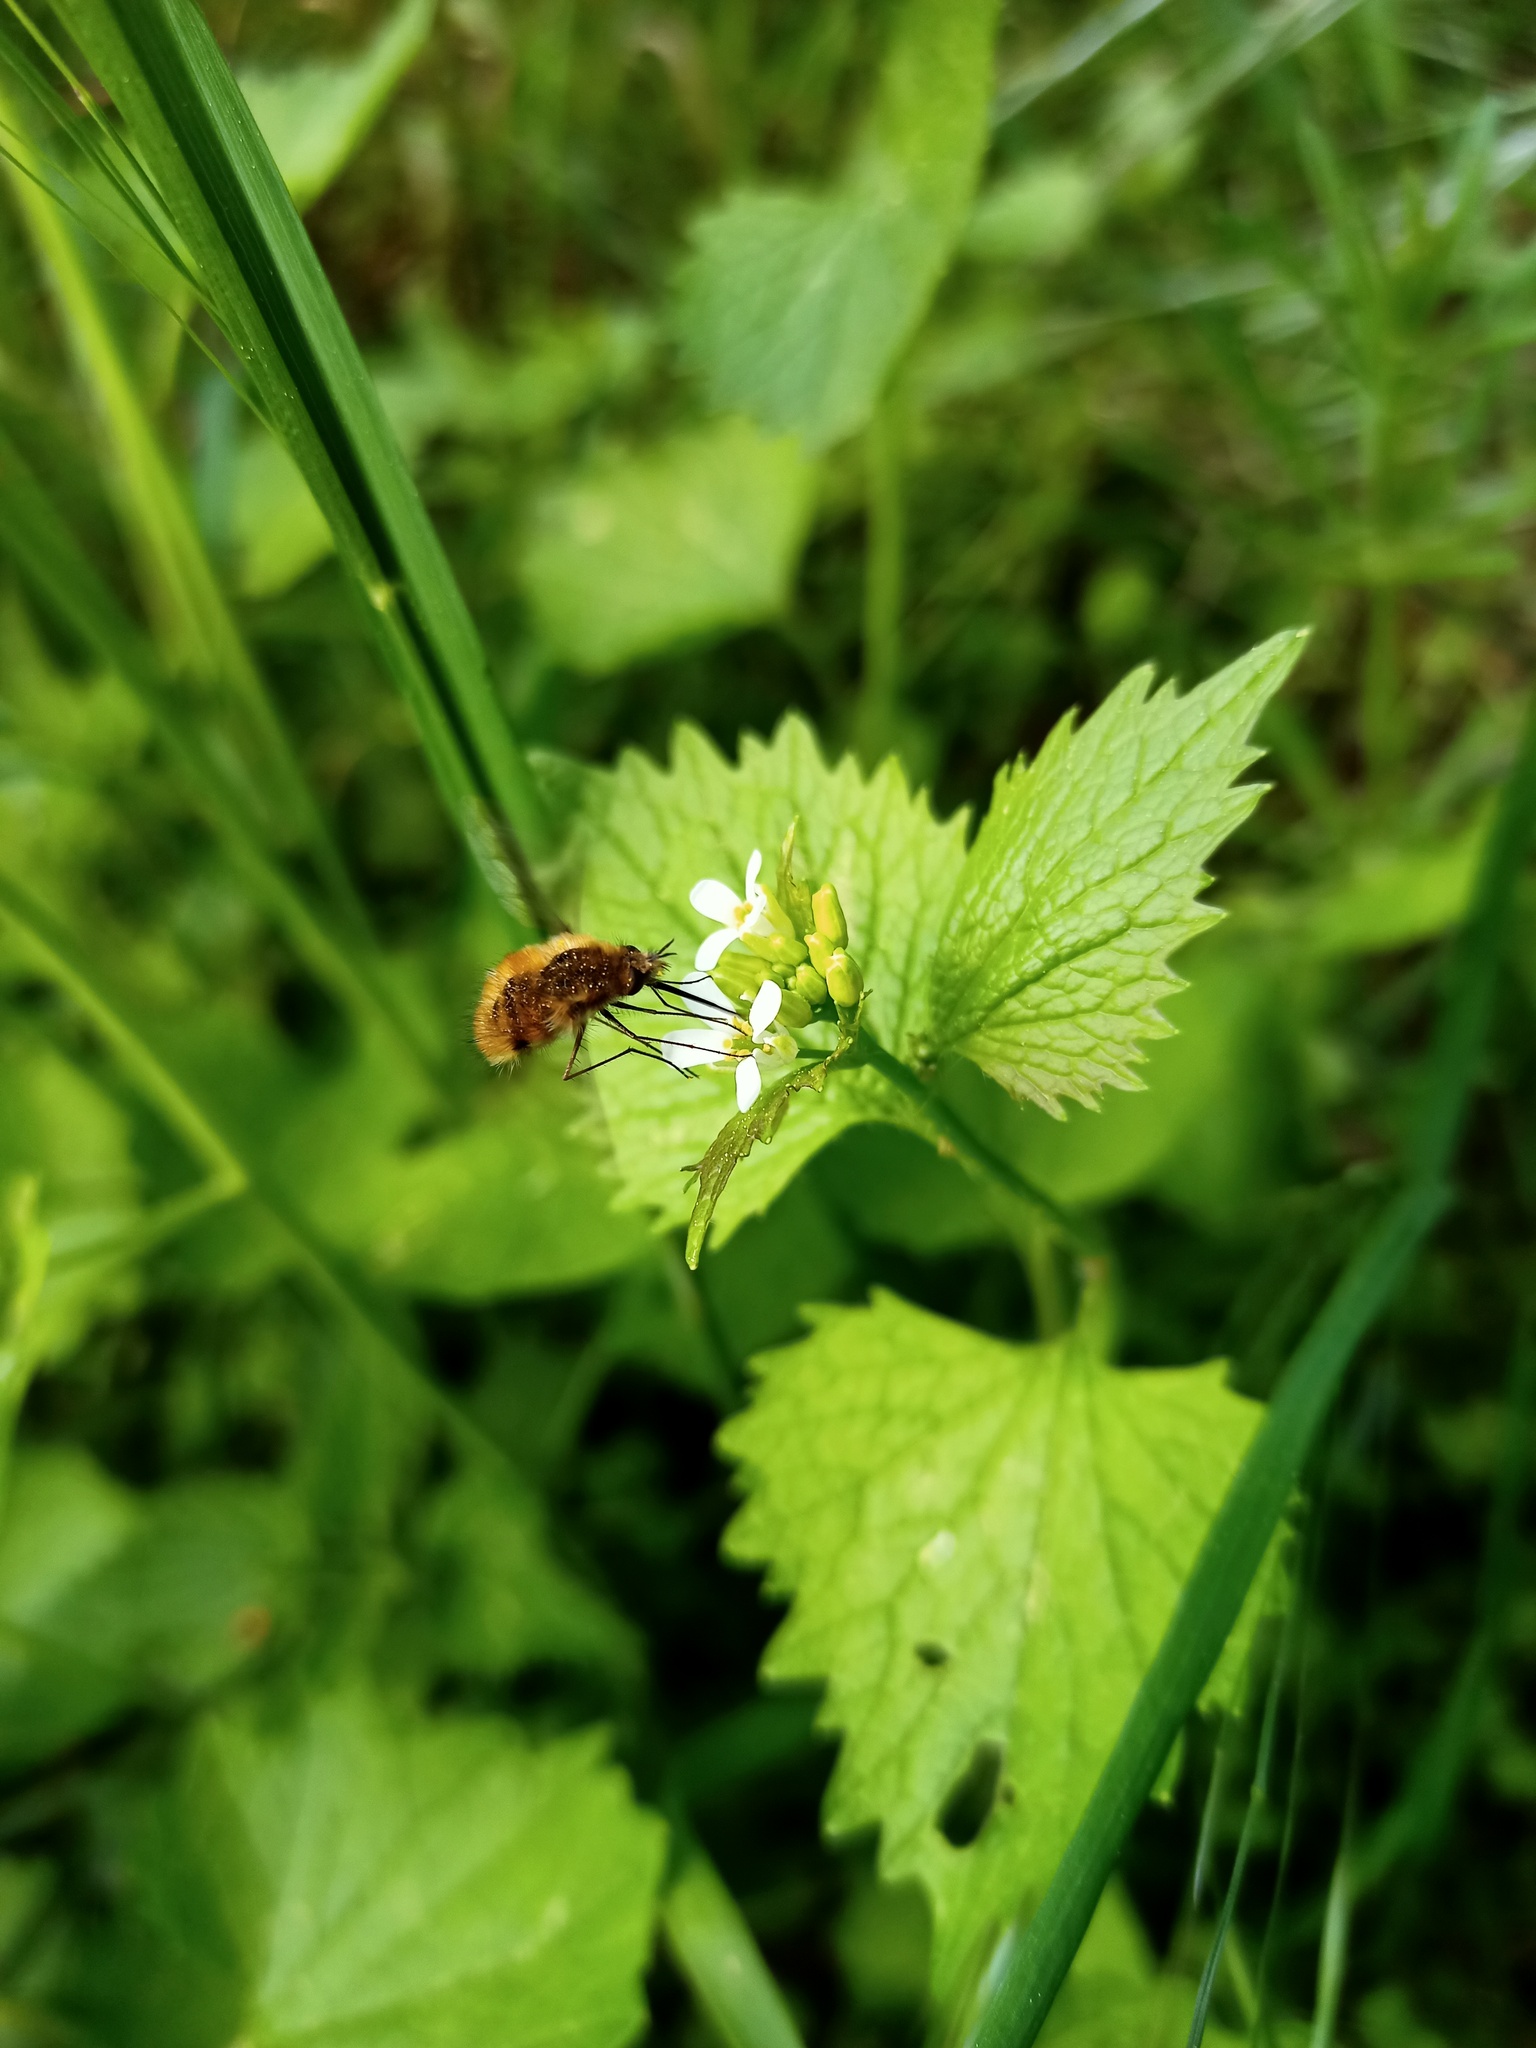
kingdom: Animalia
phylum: Arthropoda
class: Insecta
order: Diptera
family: Bombyliidae
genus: Bombylius
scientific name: Bombylius major
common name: Bee fly
